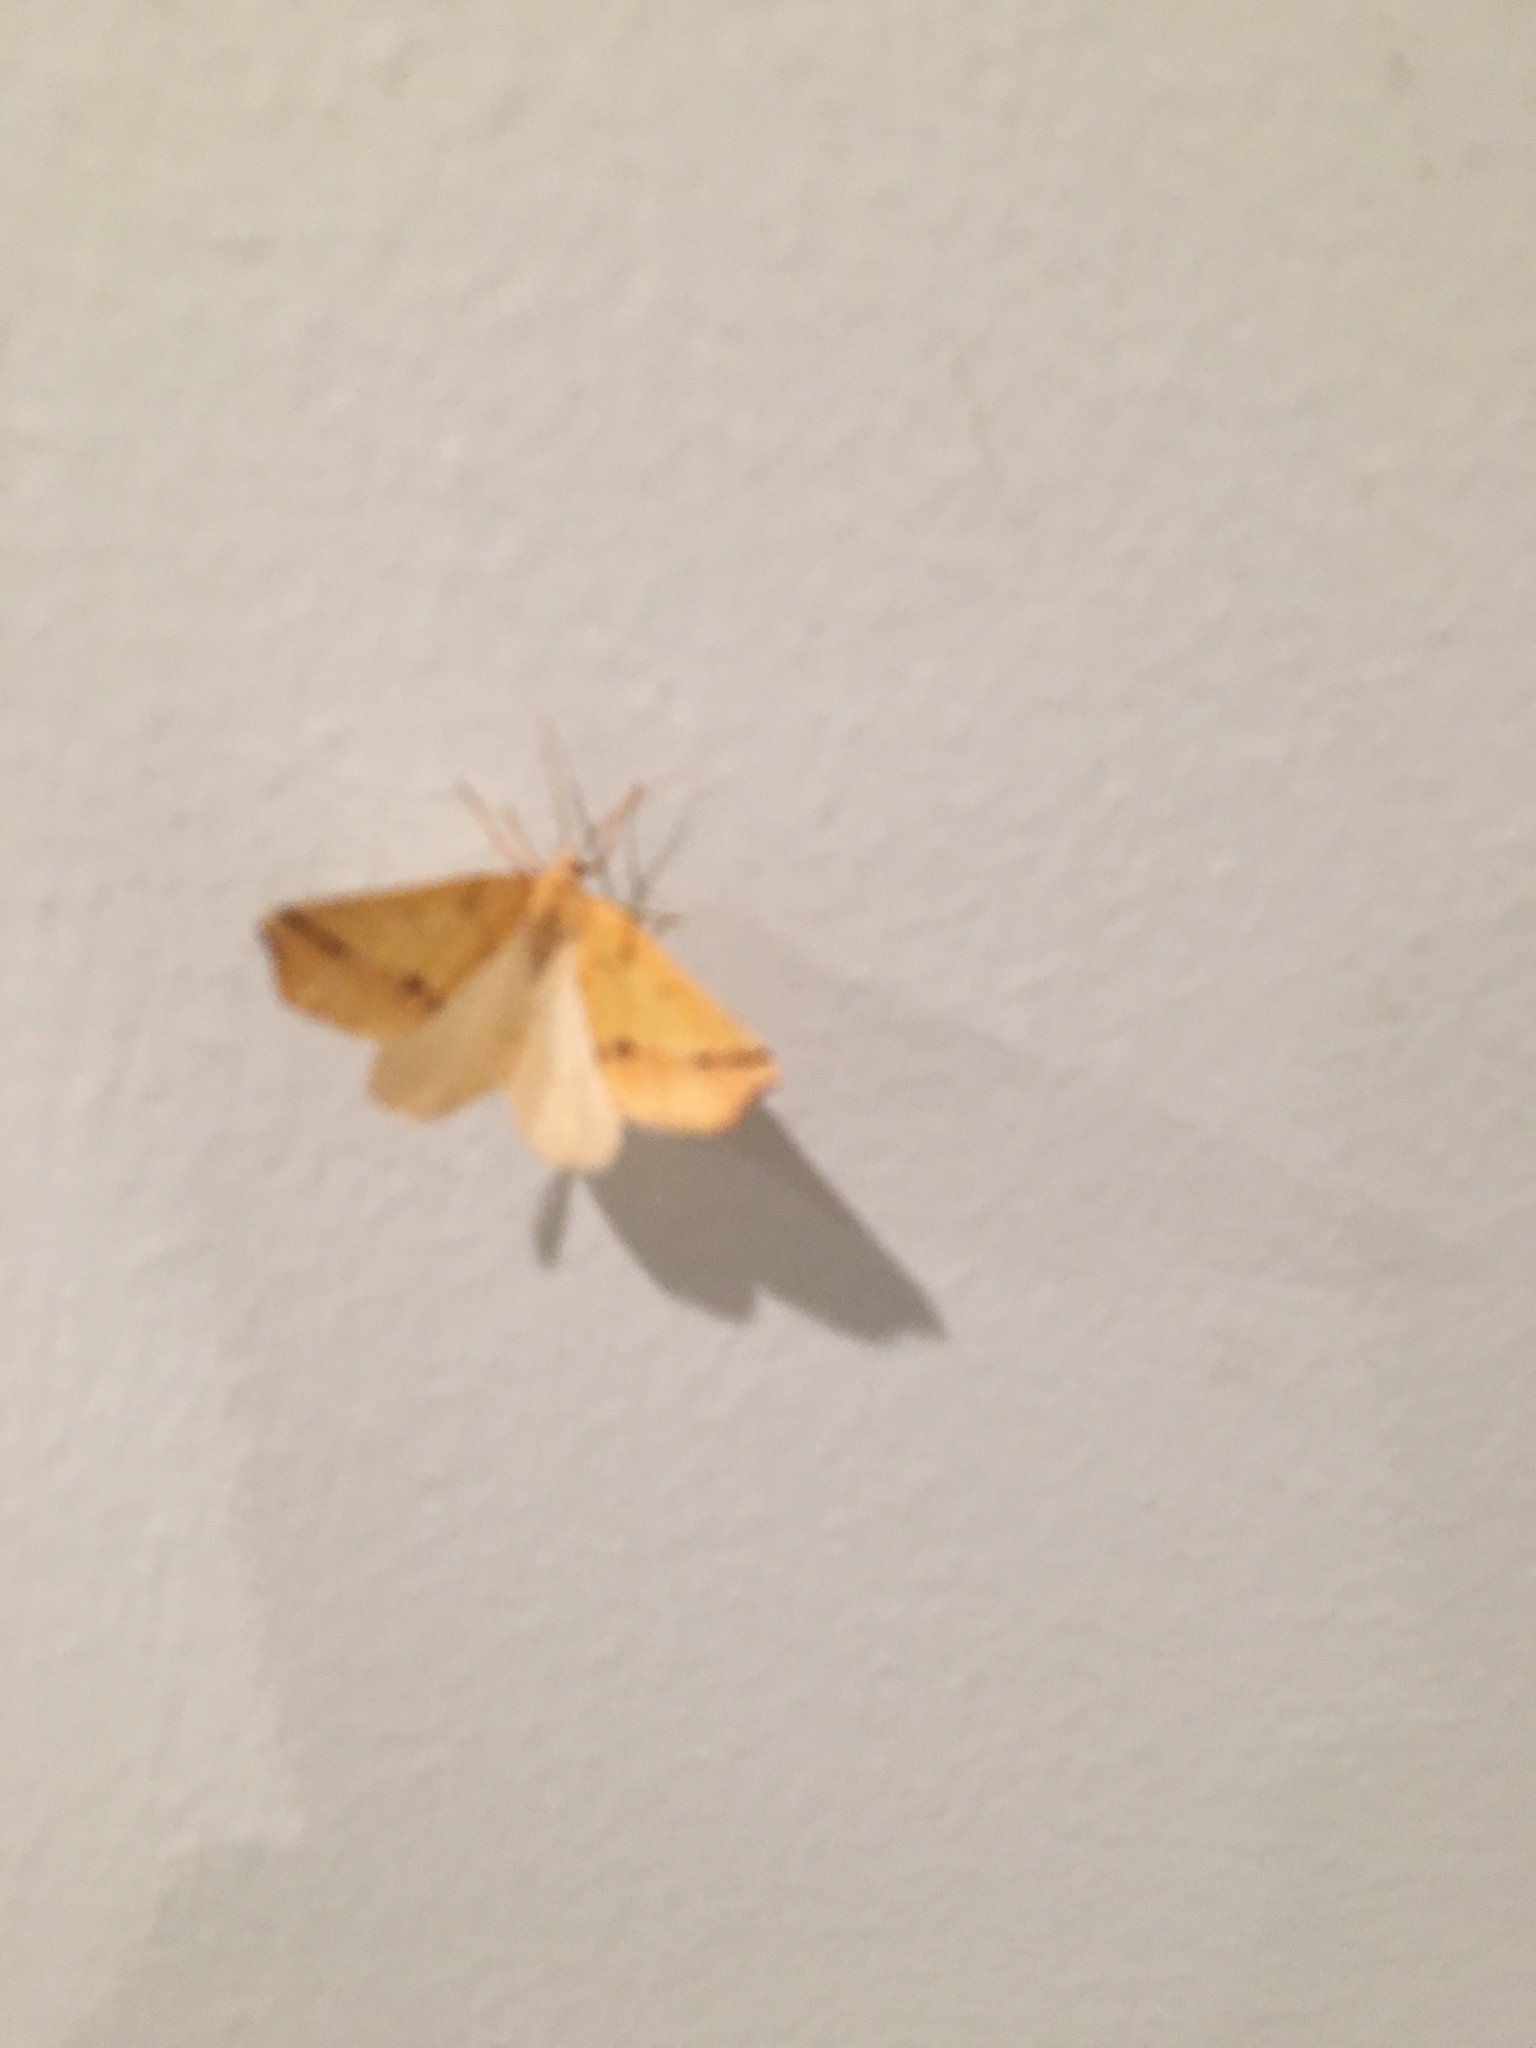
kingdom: Animalia
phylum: Arthropoda
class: Insecta
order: Lepidoptera
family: Geometridae
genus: Neoterpes
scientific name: Neoterpes edwardsata
